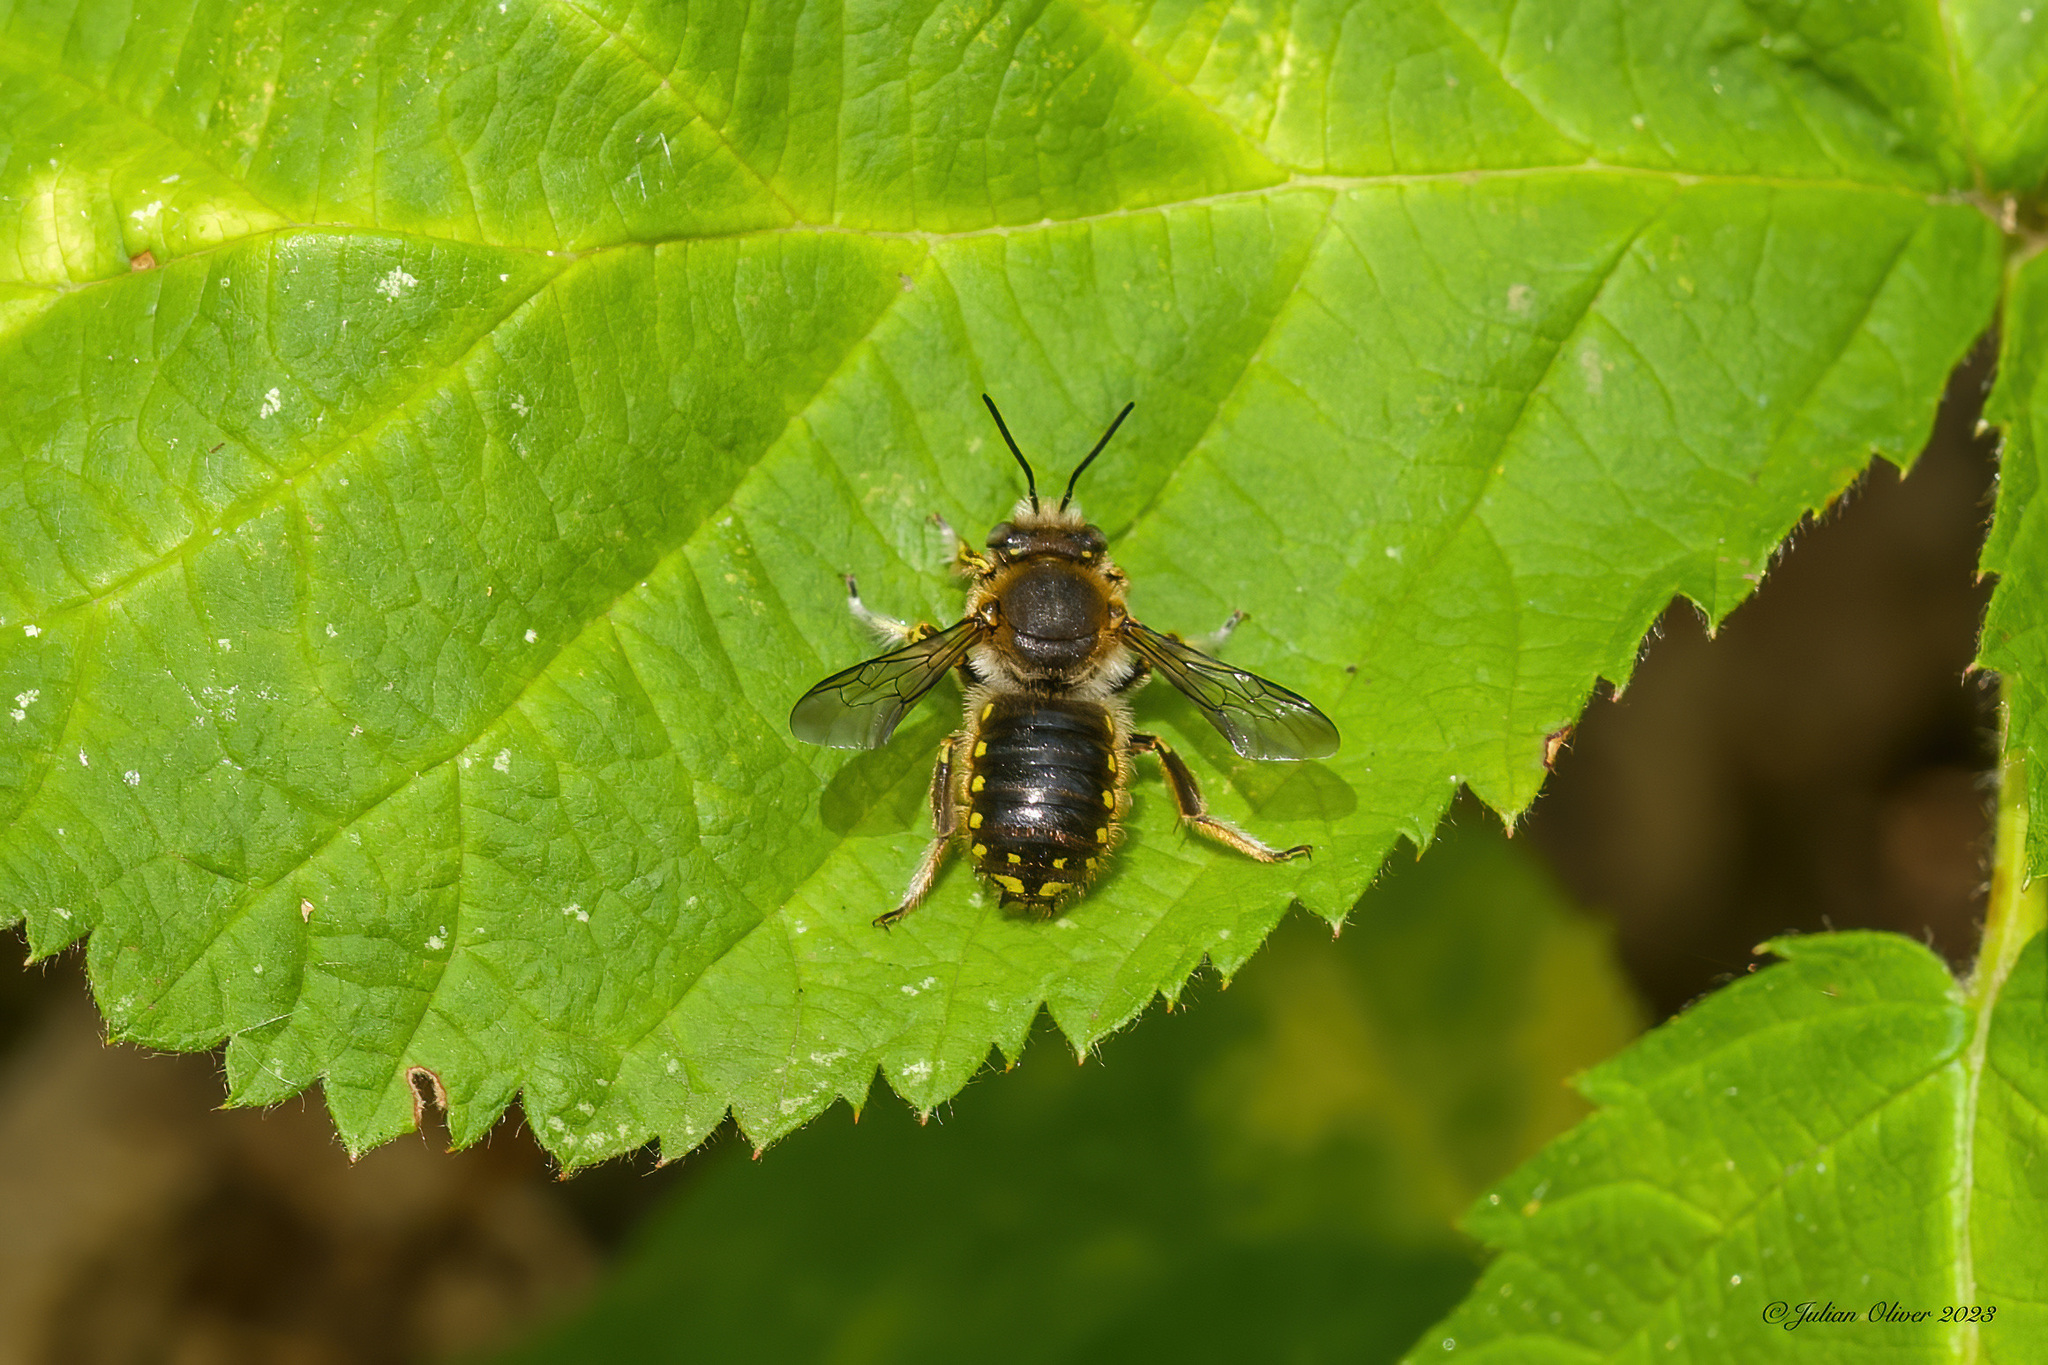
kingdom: Animalia
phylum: Arthropoda
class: Insecta
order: Hymenoptera
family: Megachilidae
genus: Anthidium
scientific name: Anthidium manicatum
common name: Wool carder bee
